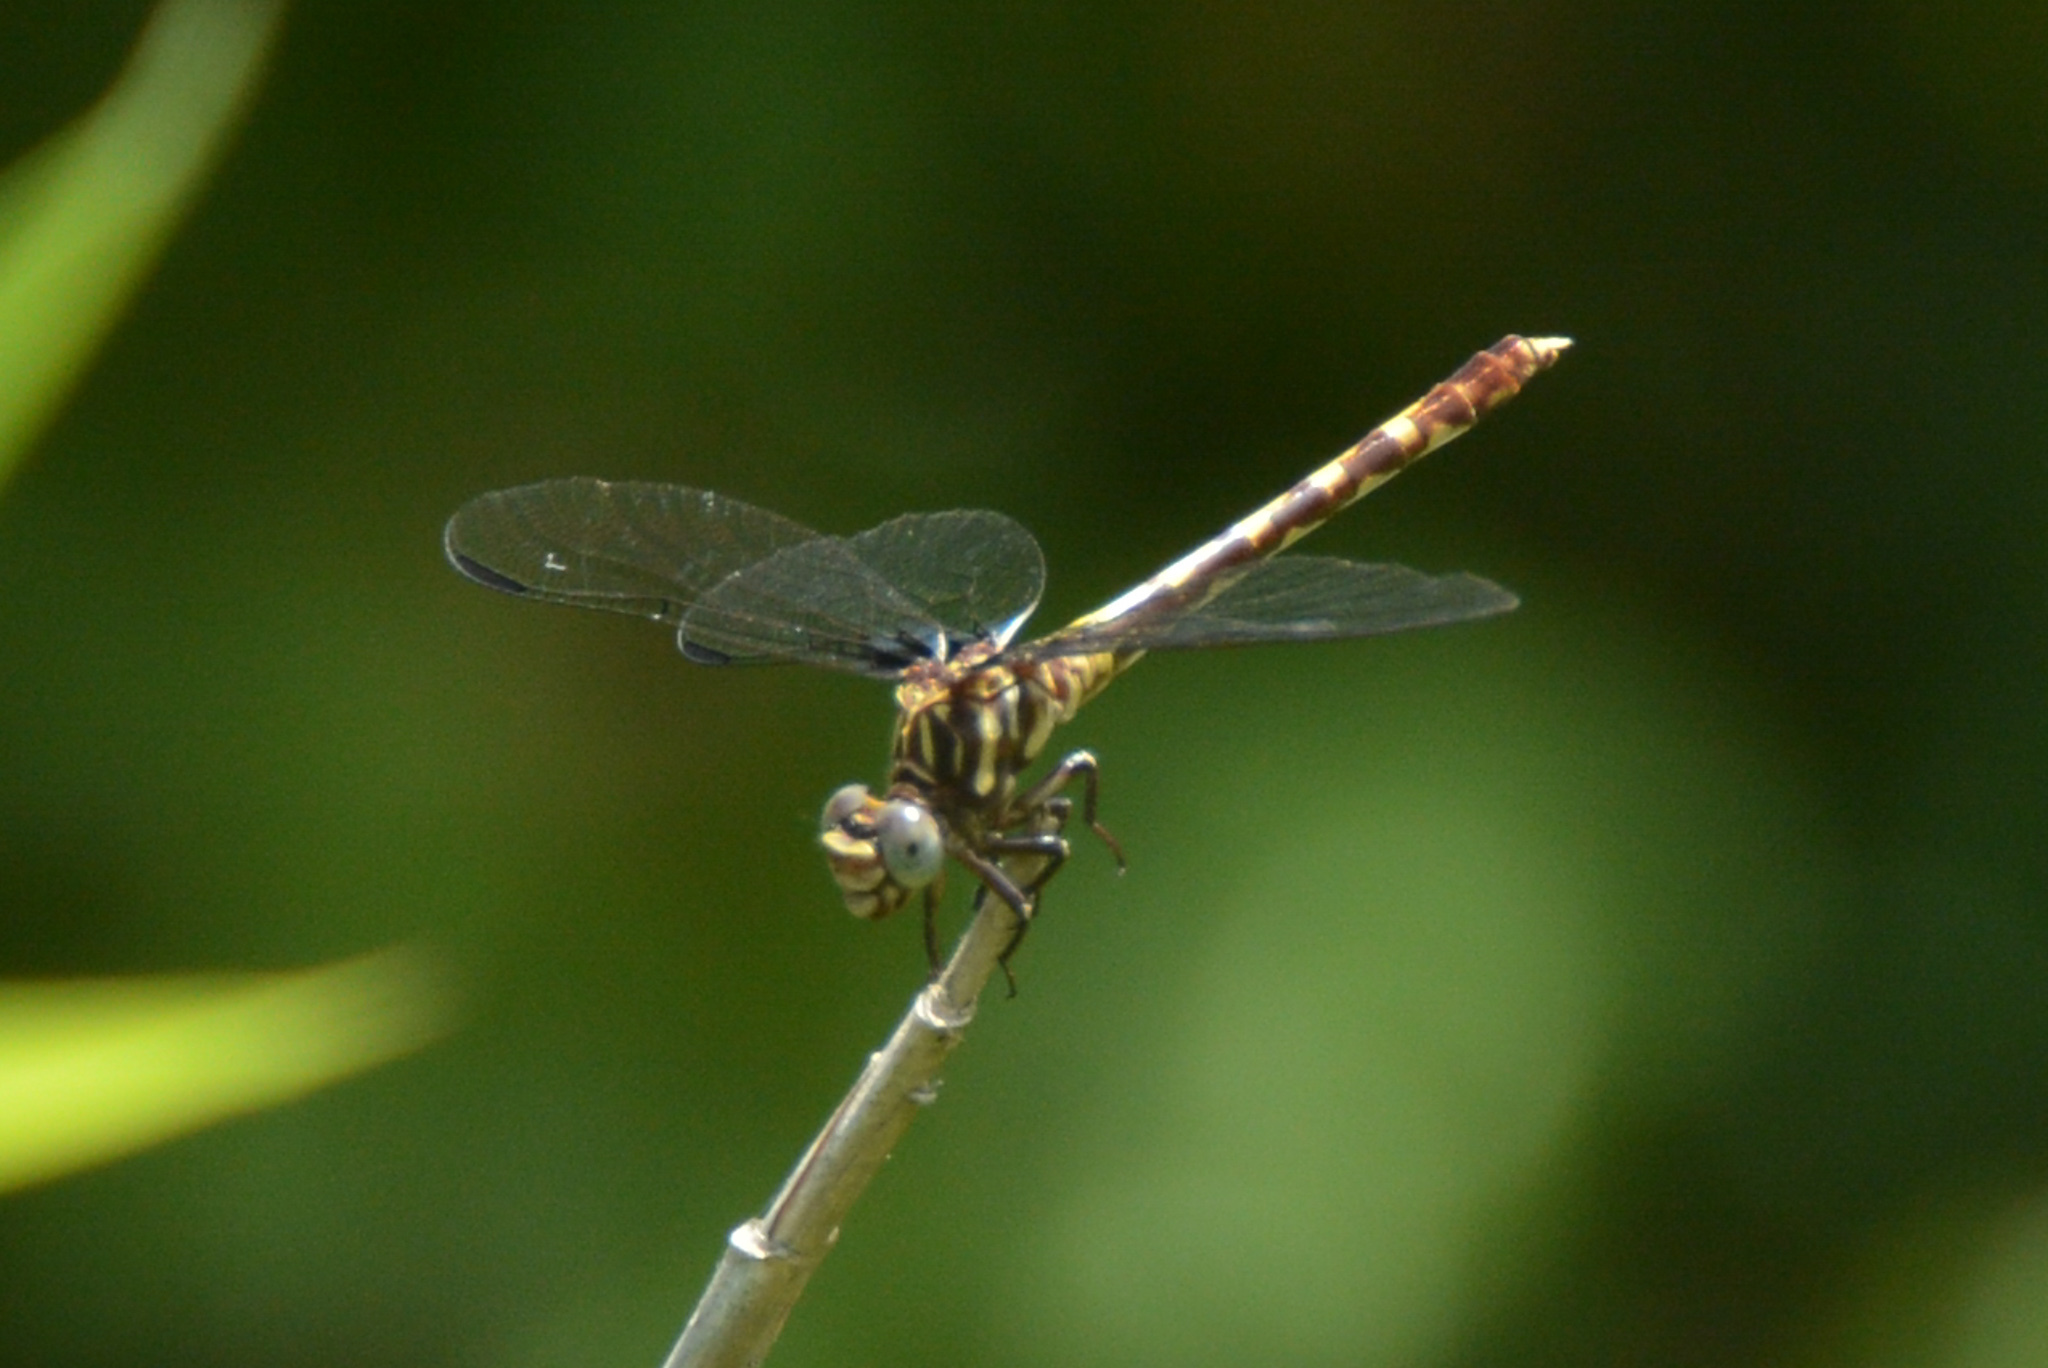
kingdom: Animalia
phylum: Arthropoda
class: Insecta
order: Odonata
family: Gomphidae
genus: Progomphus
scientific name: Progomphus obscurus
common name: Common sanddragon
